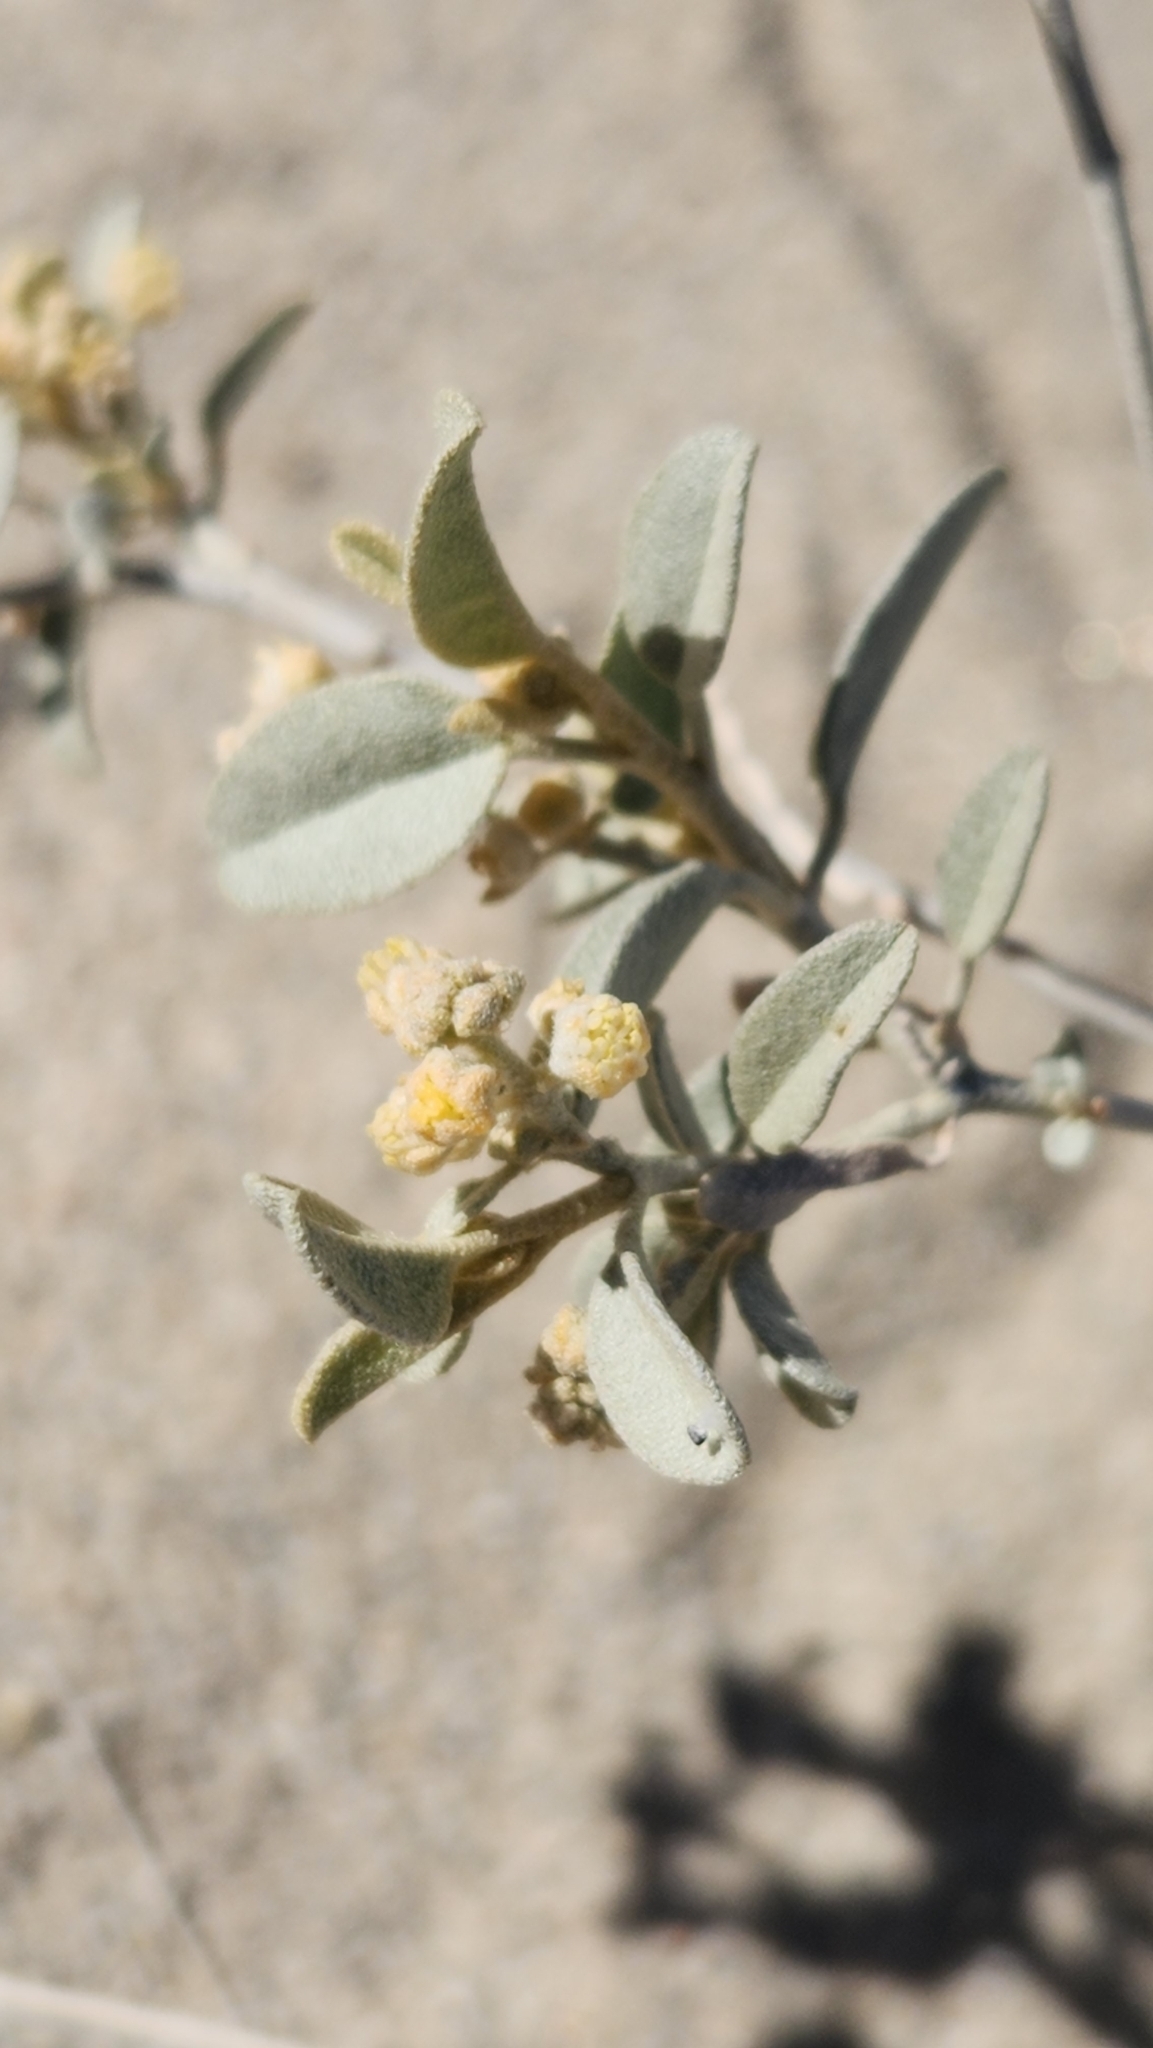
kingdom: Plantae
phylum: Tracheophyta
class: Magnoliopsida
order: Malpighiales
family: Euphorbiaceae
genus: Croton
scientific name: Croton californicus
